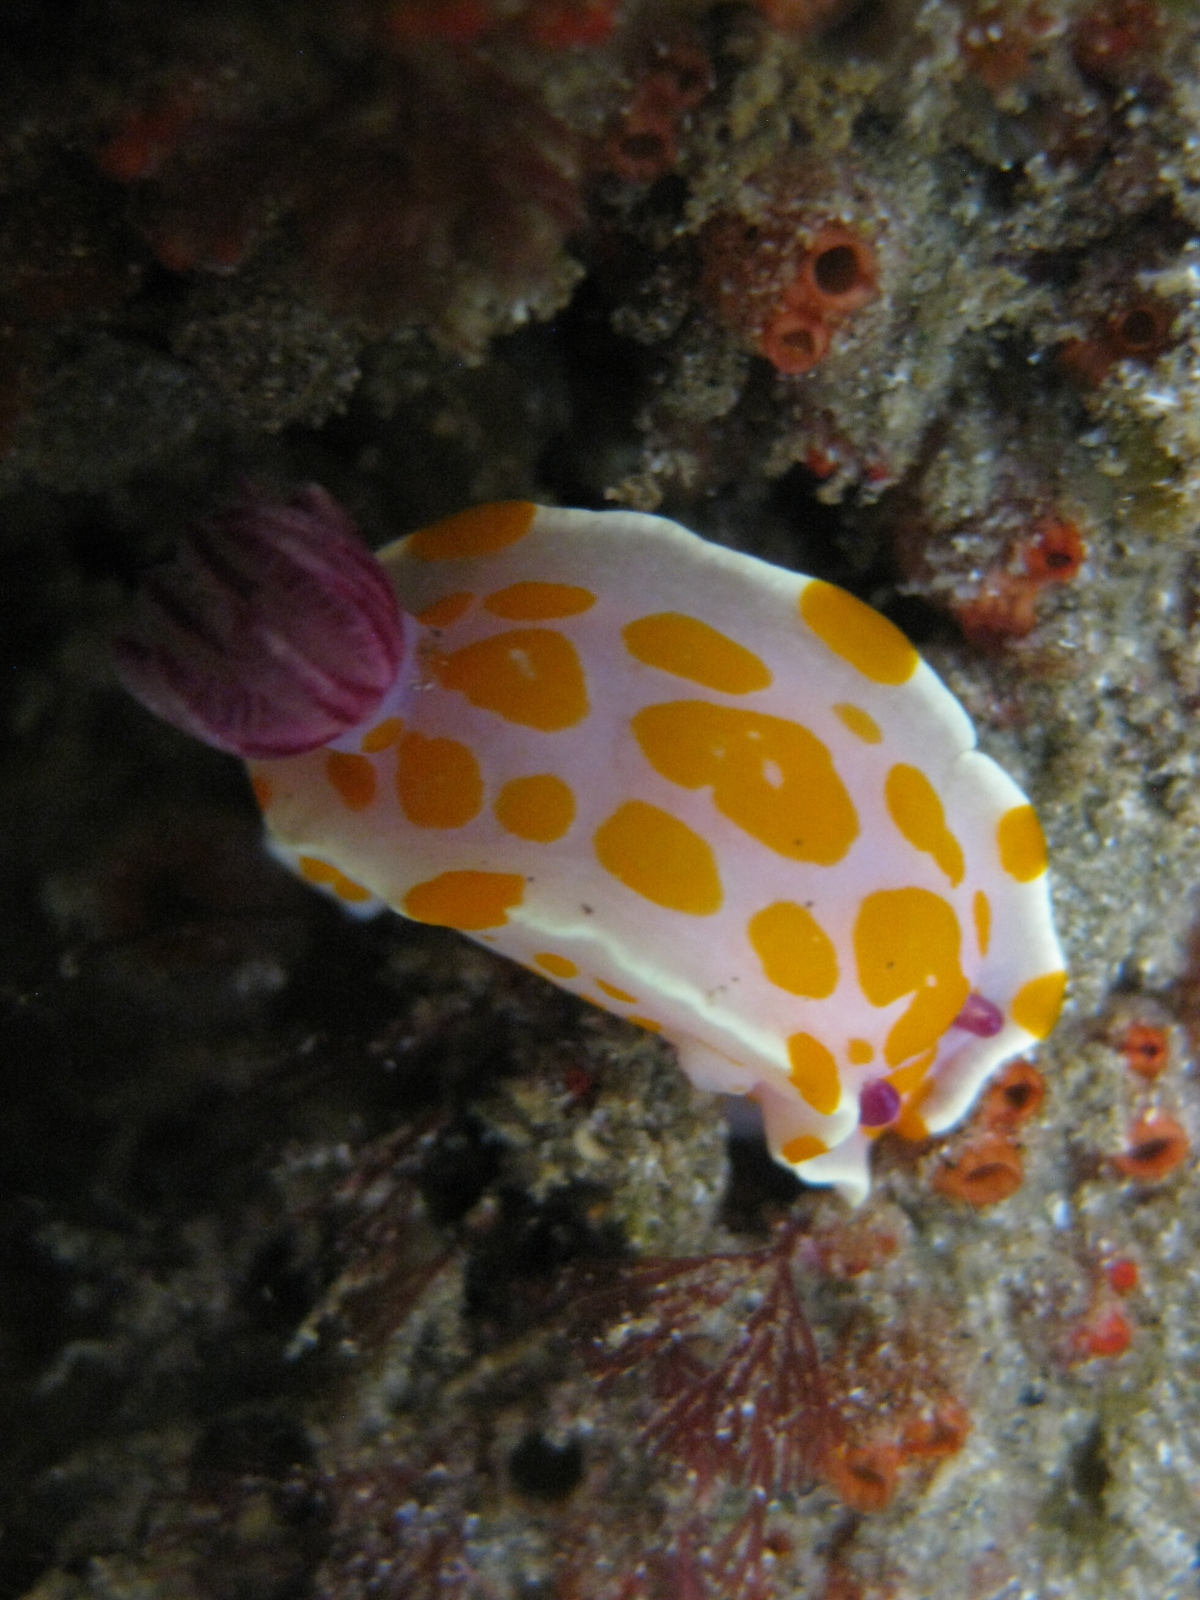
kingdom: Animalia
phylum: Mollusca
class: Gastropoda
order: Nudibranchia
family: Chromodorididae
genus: Ceratosoma
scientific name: Ceratosoma amoenum
